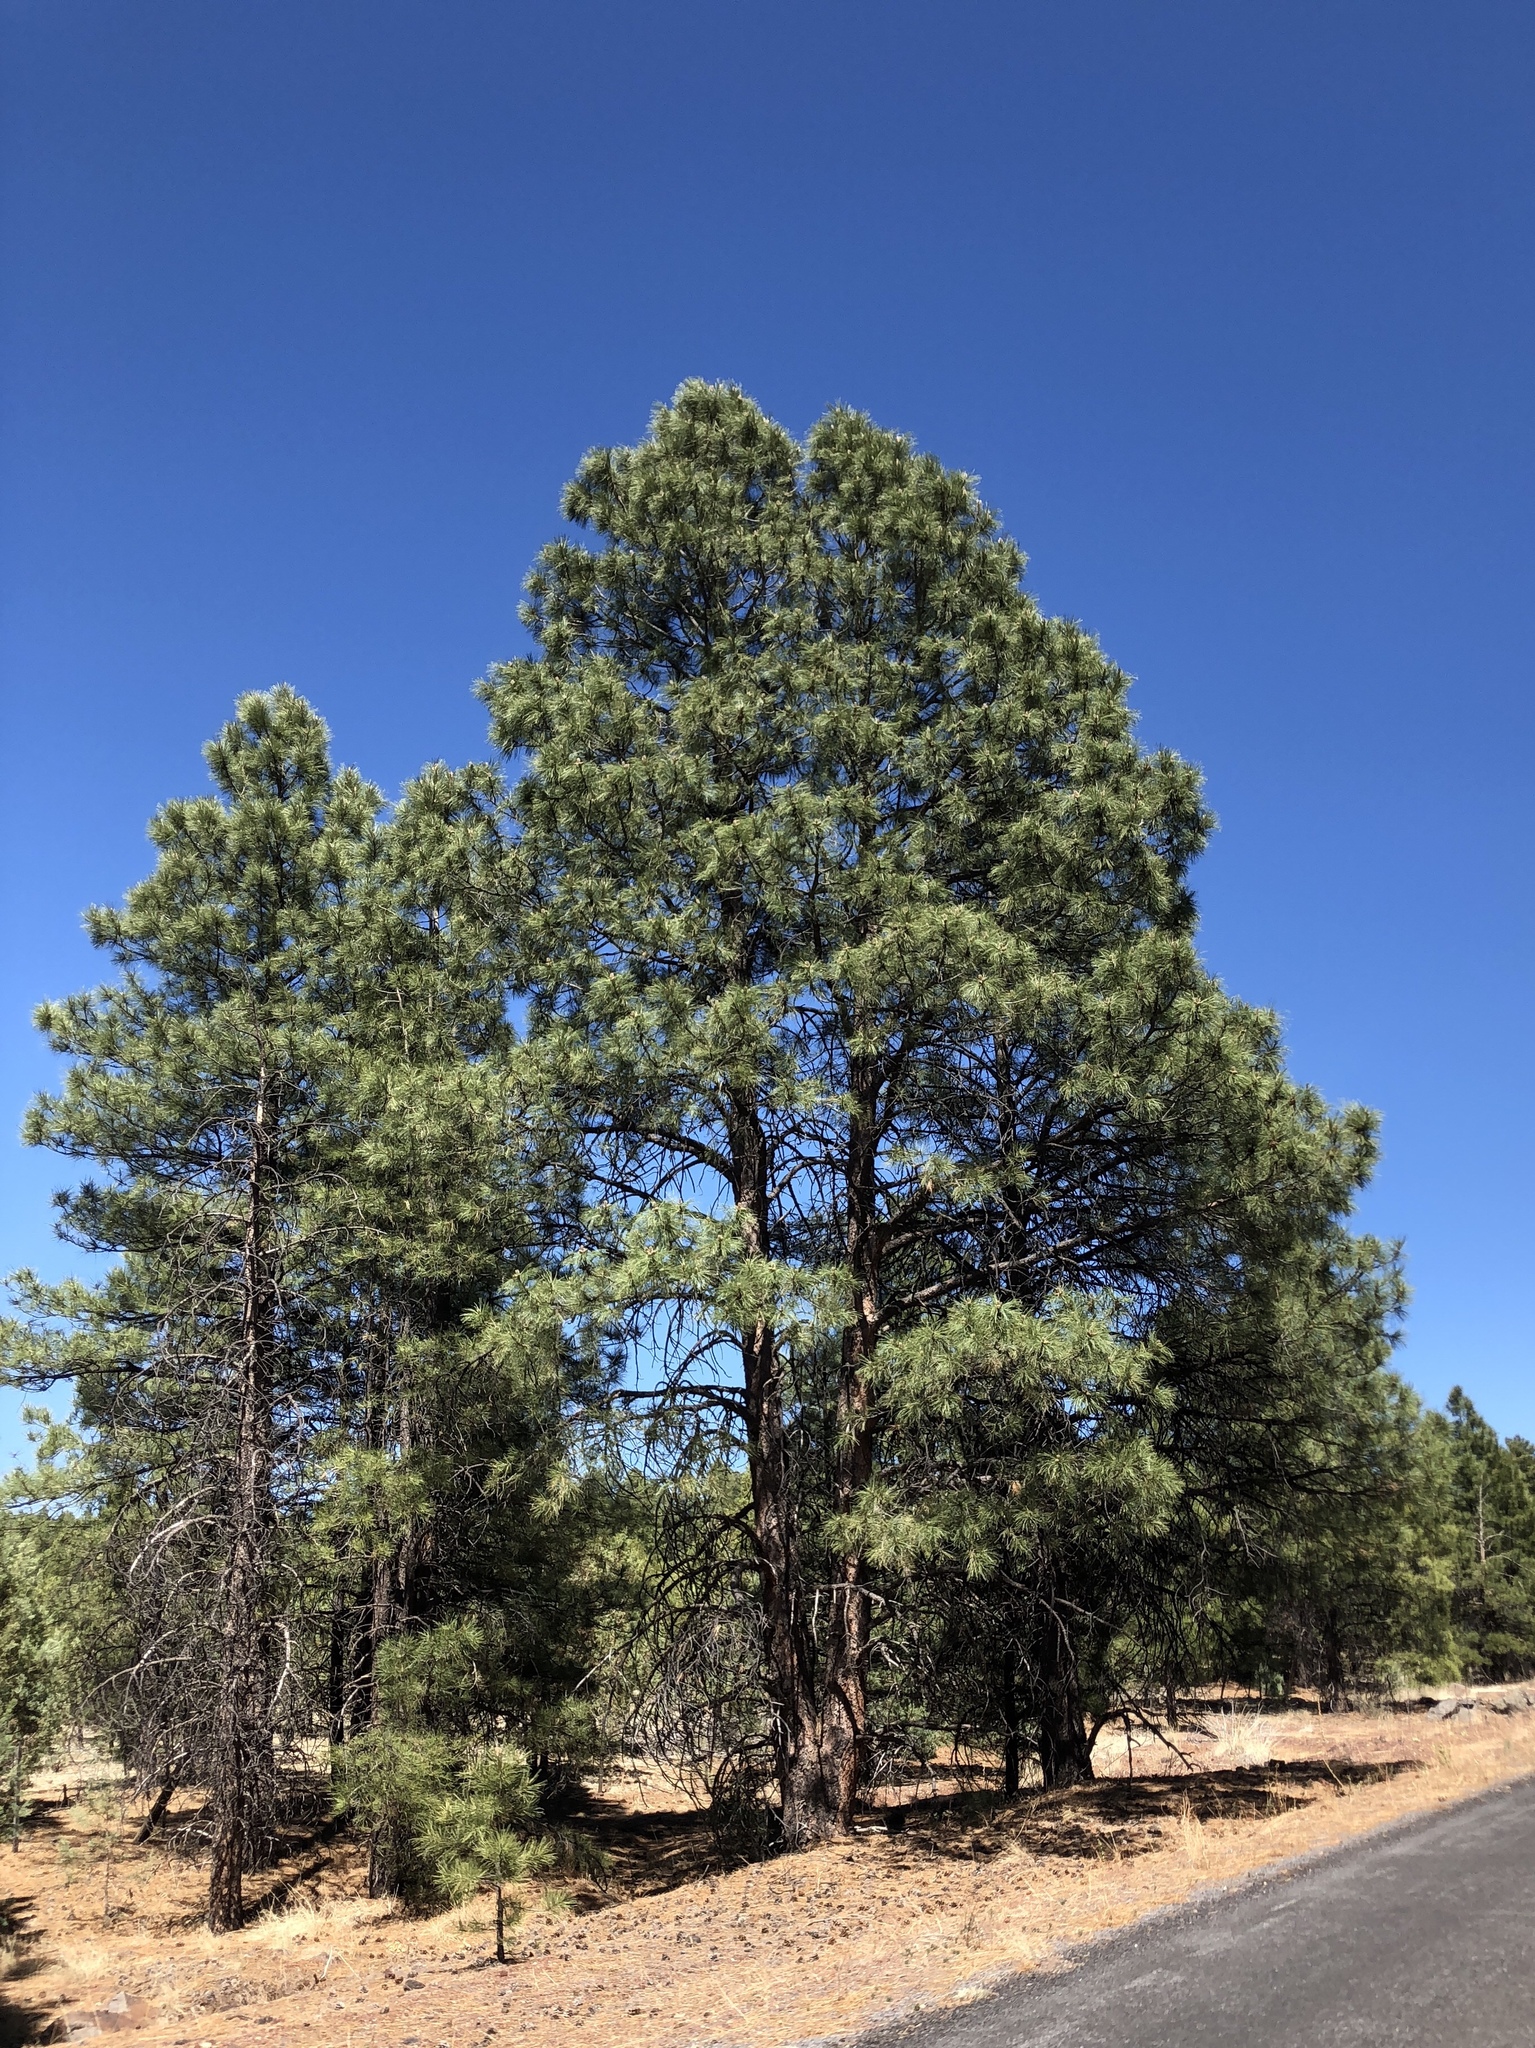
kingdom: Plantae
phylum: Tracheophyta
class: Pinopsida
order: Pinales
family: Pinaceae
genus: Pinus
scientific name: Pinus ponderosa
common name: Western yellow-pine
